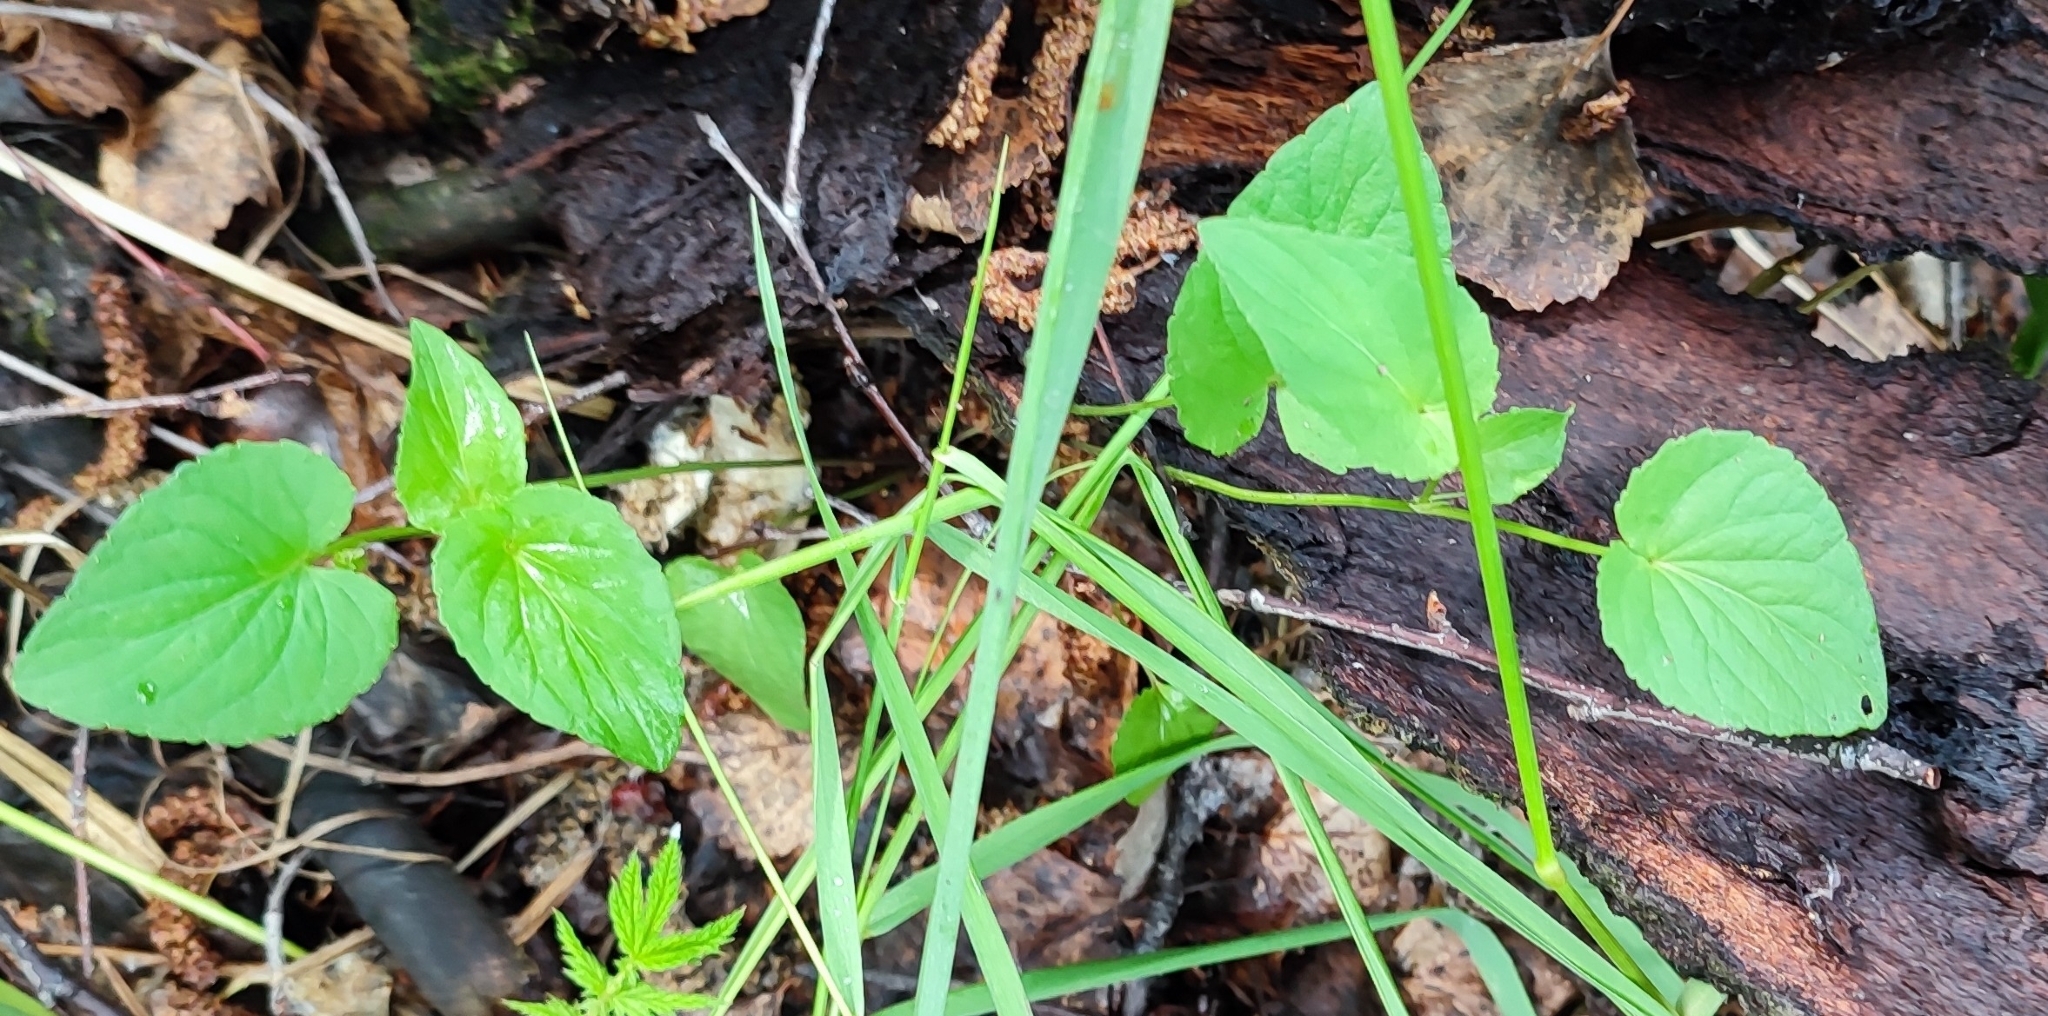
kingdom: Plantae
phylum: Tracheophyta
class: Magnoliopsida
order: Malpighiales
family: Violaceae
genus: Viola
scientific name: Viola
